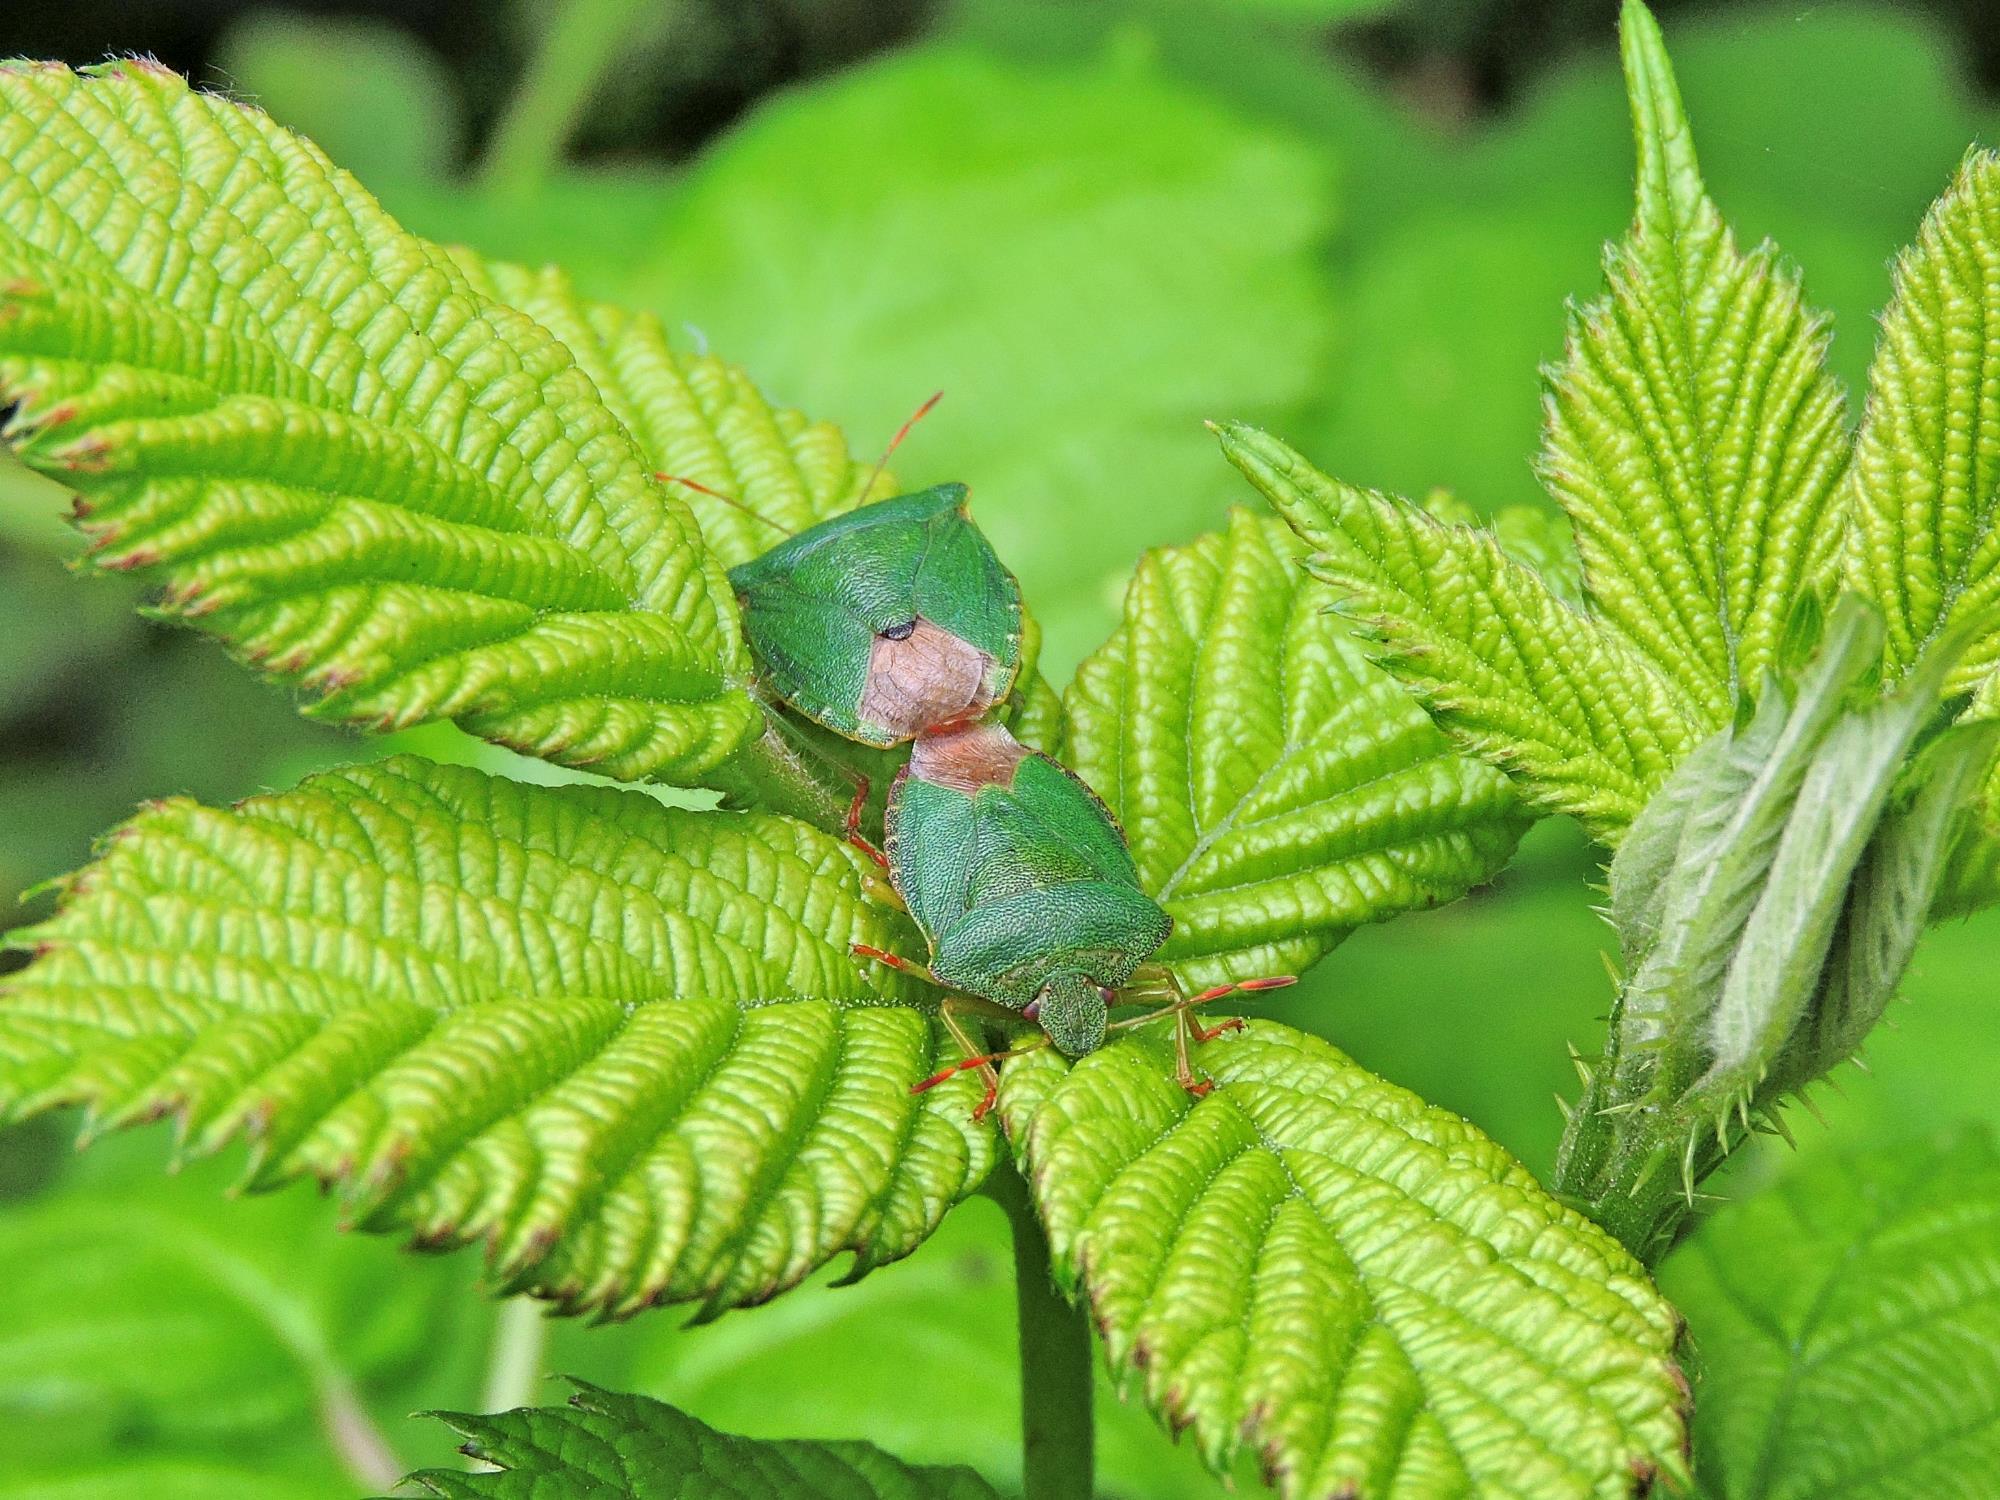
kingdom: Animalia
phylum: Arthropoda
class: Insecta
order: Hemiptera
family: Pentatomidae
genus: Palomena
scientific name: Palomena prasina
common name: Green shieldbug
